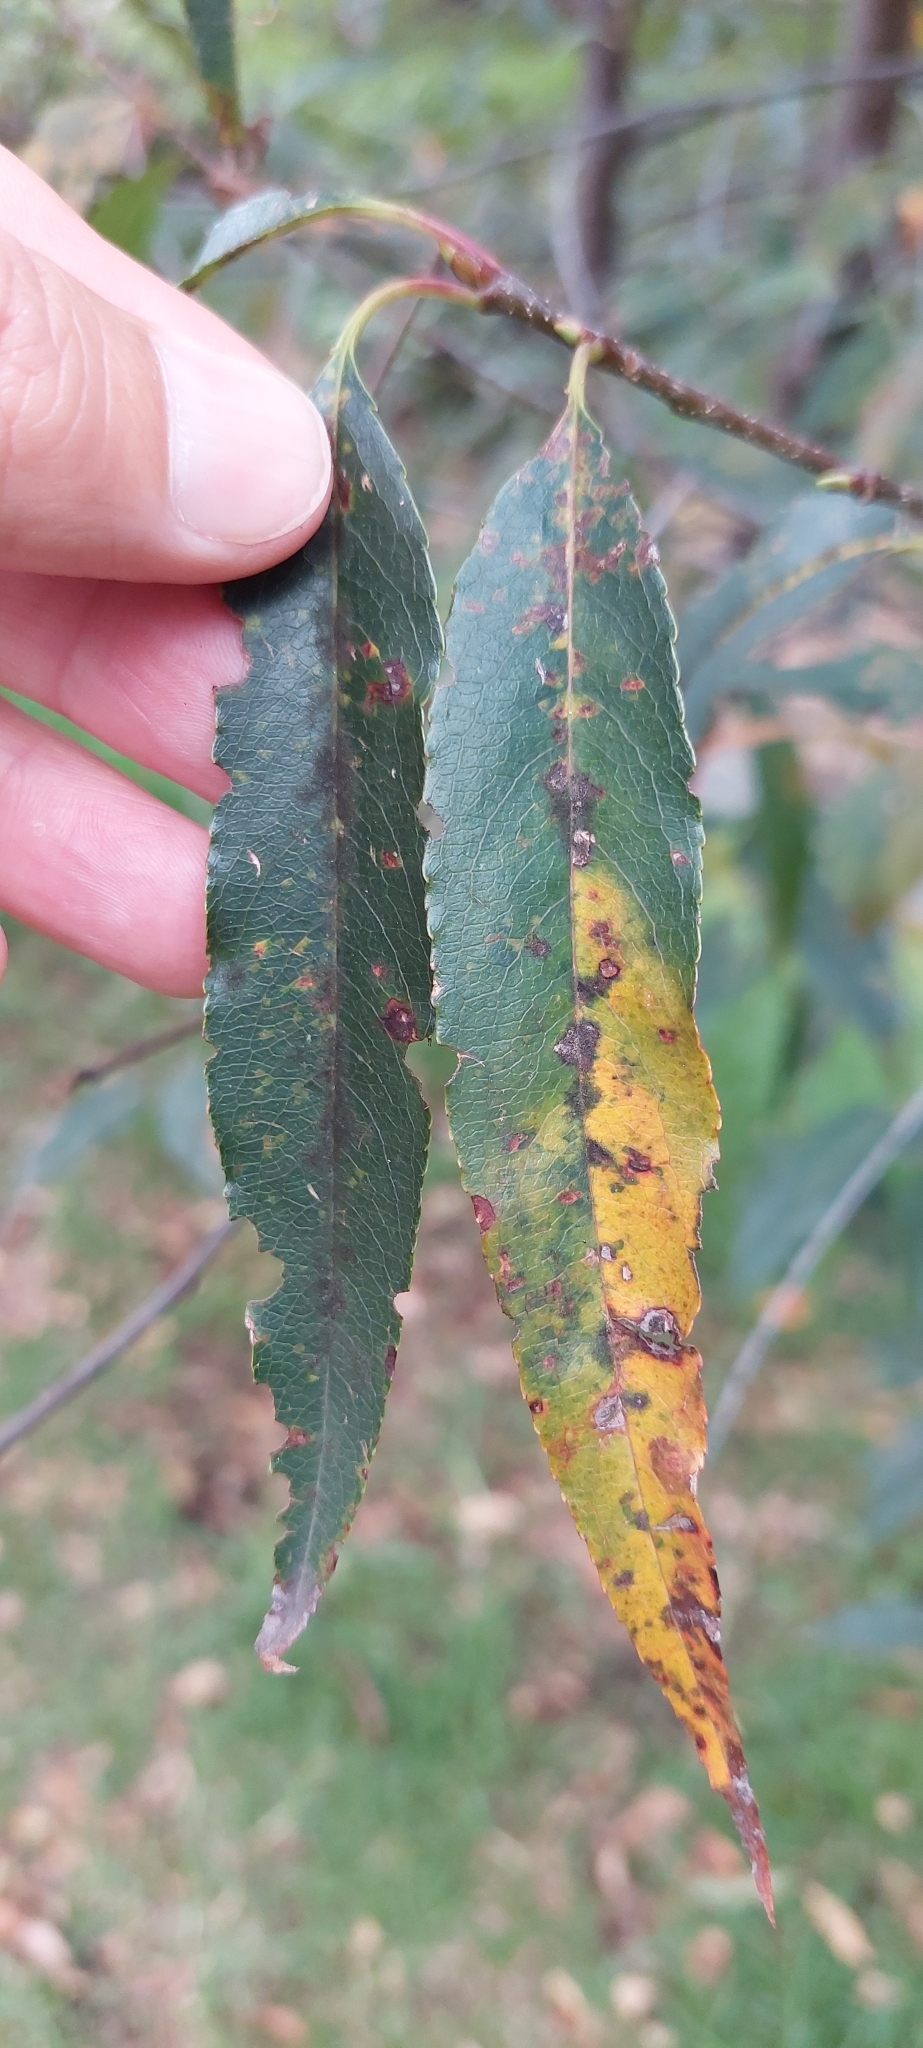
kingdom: Plantae
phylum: Tracheophyta
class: Magnoliopsida
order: Rosales
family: Rosaceae
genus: Prunus
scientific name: Prunus serotina
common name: Black cherry
